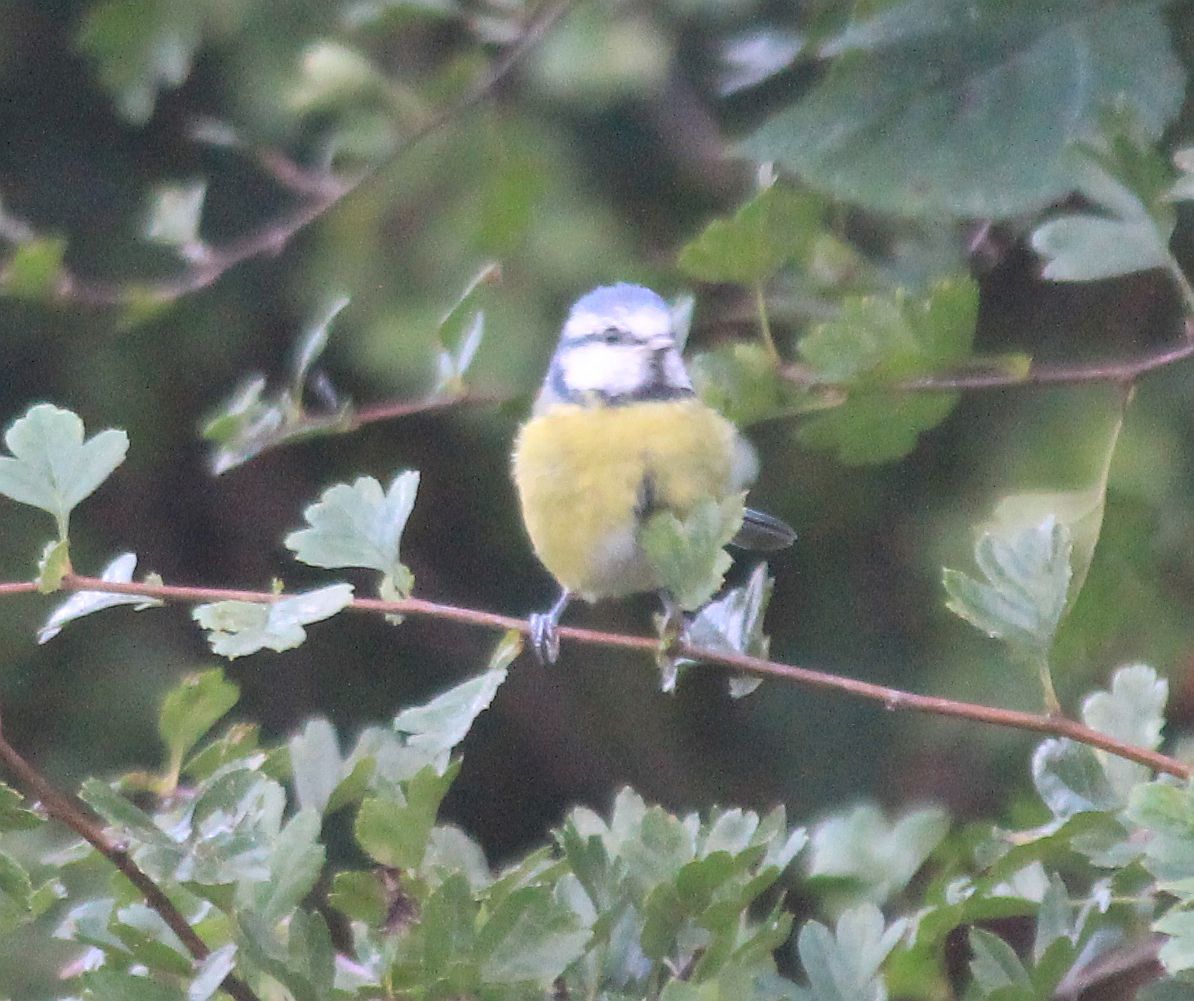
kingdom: Animalia
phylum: Chordata
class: Aves
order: Passeriformes
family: Paridae
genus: Cyanistes
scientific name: Cyanistes caeruleus
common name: Eurasian blue tit
